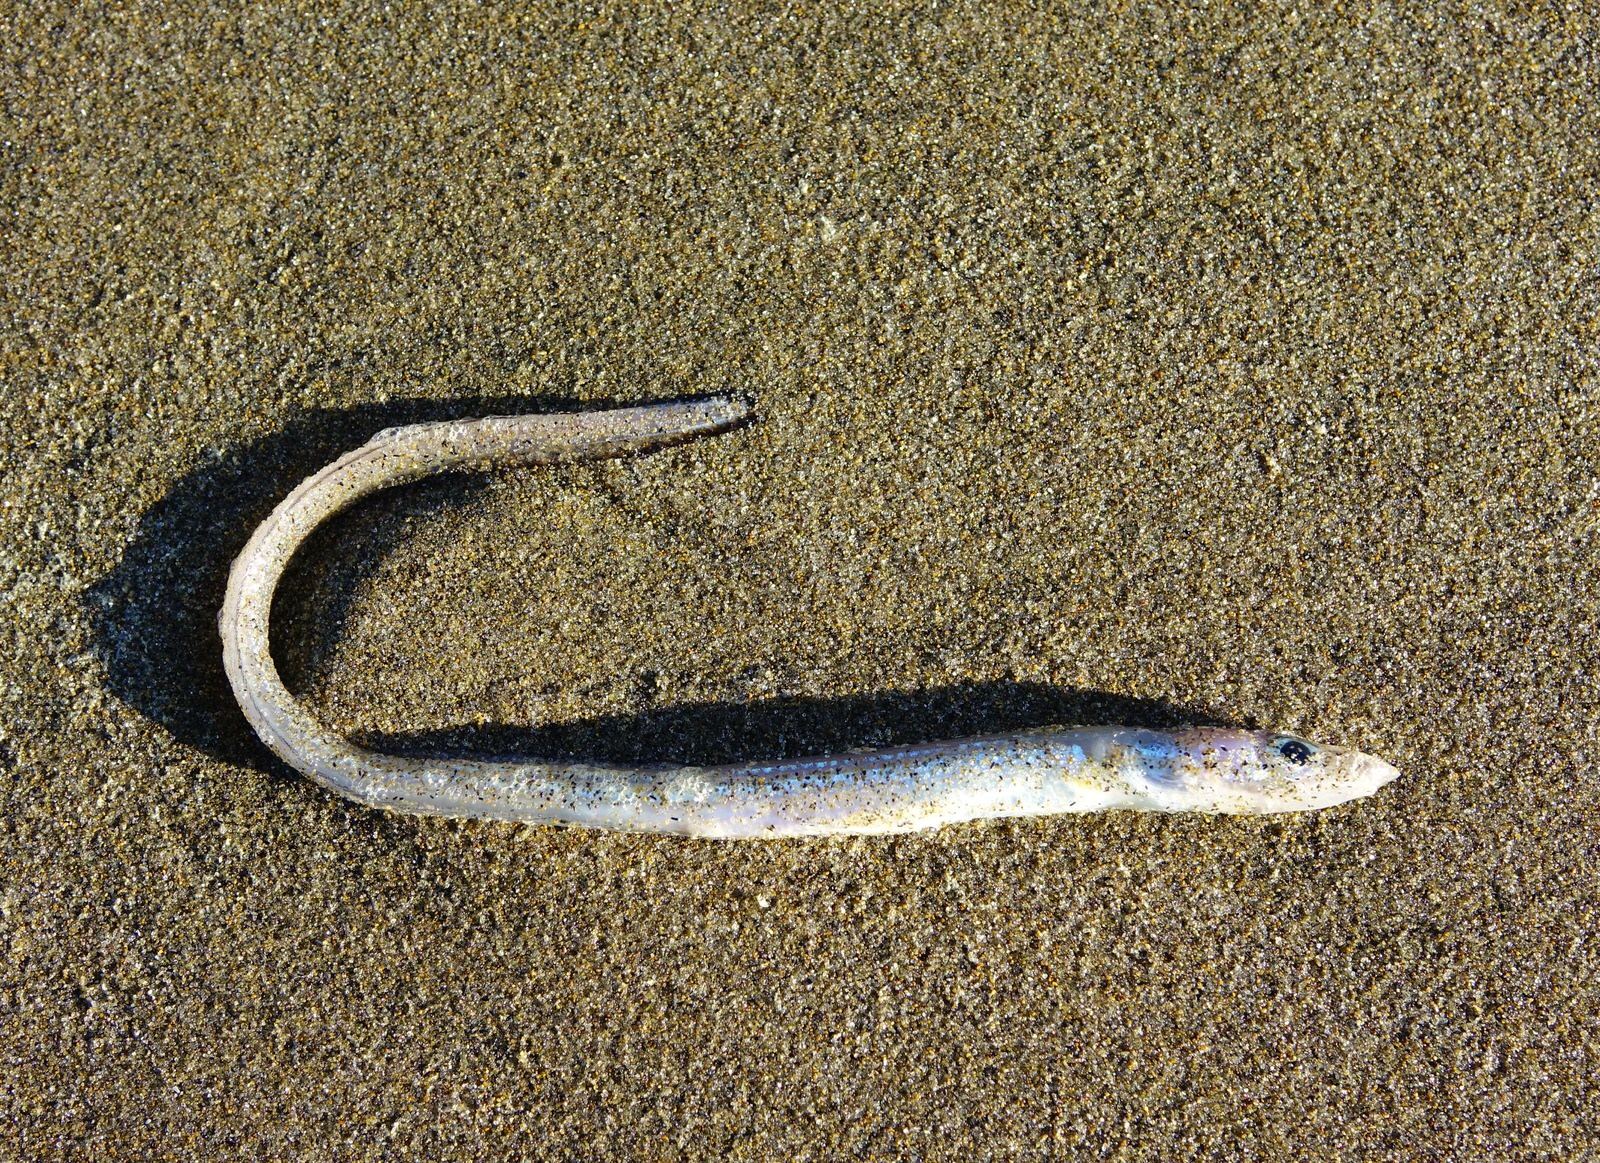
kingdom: Animalia
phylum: Chordata
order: Anguilliformes
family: Congridae
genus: Gnathophis
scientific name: Gnathophis habenatus
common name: Silver conger
